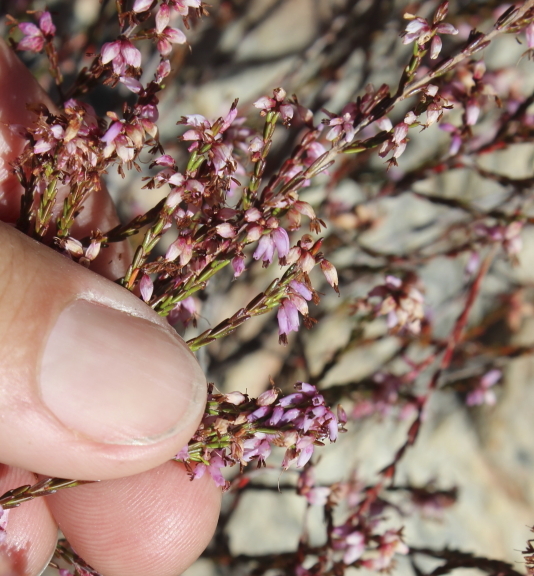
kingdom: Plantae
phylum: Tracheophyta
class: Magnoliopsida
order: Ericales
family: Ericaceae
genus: Erica
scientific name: Erica rosacea
